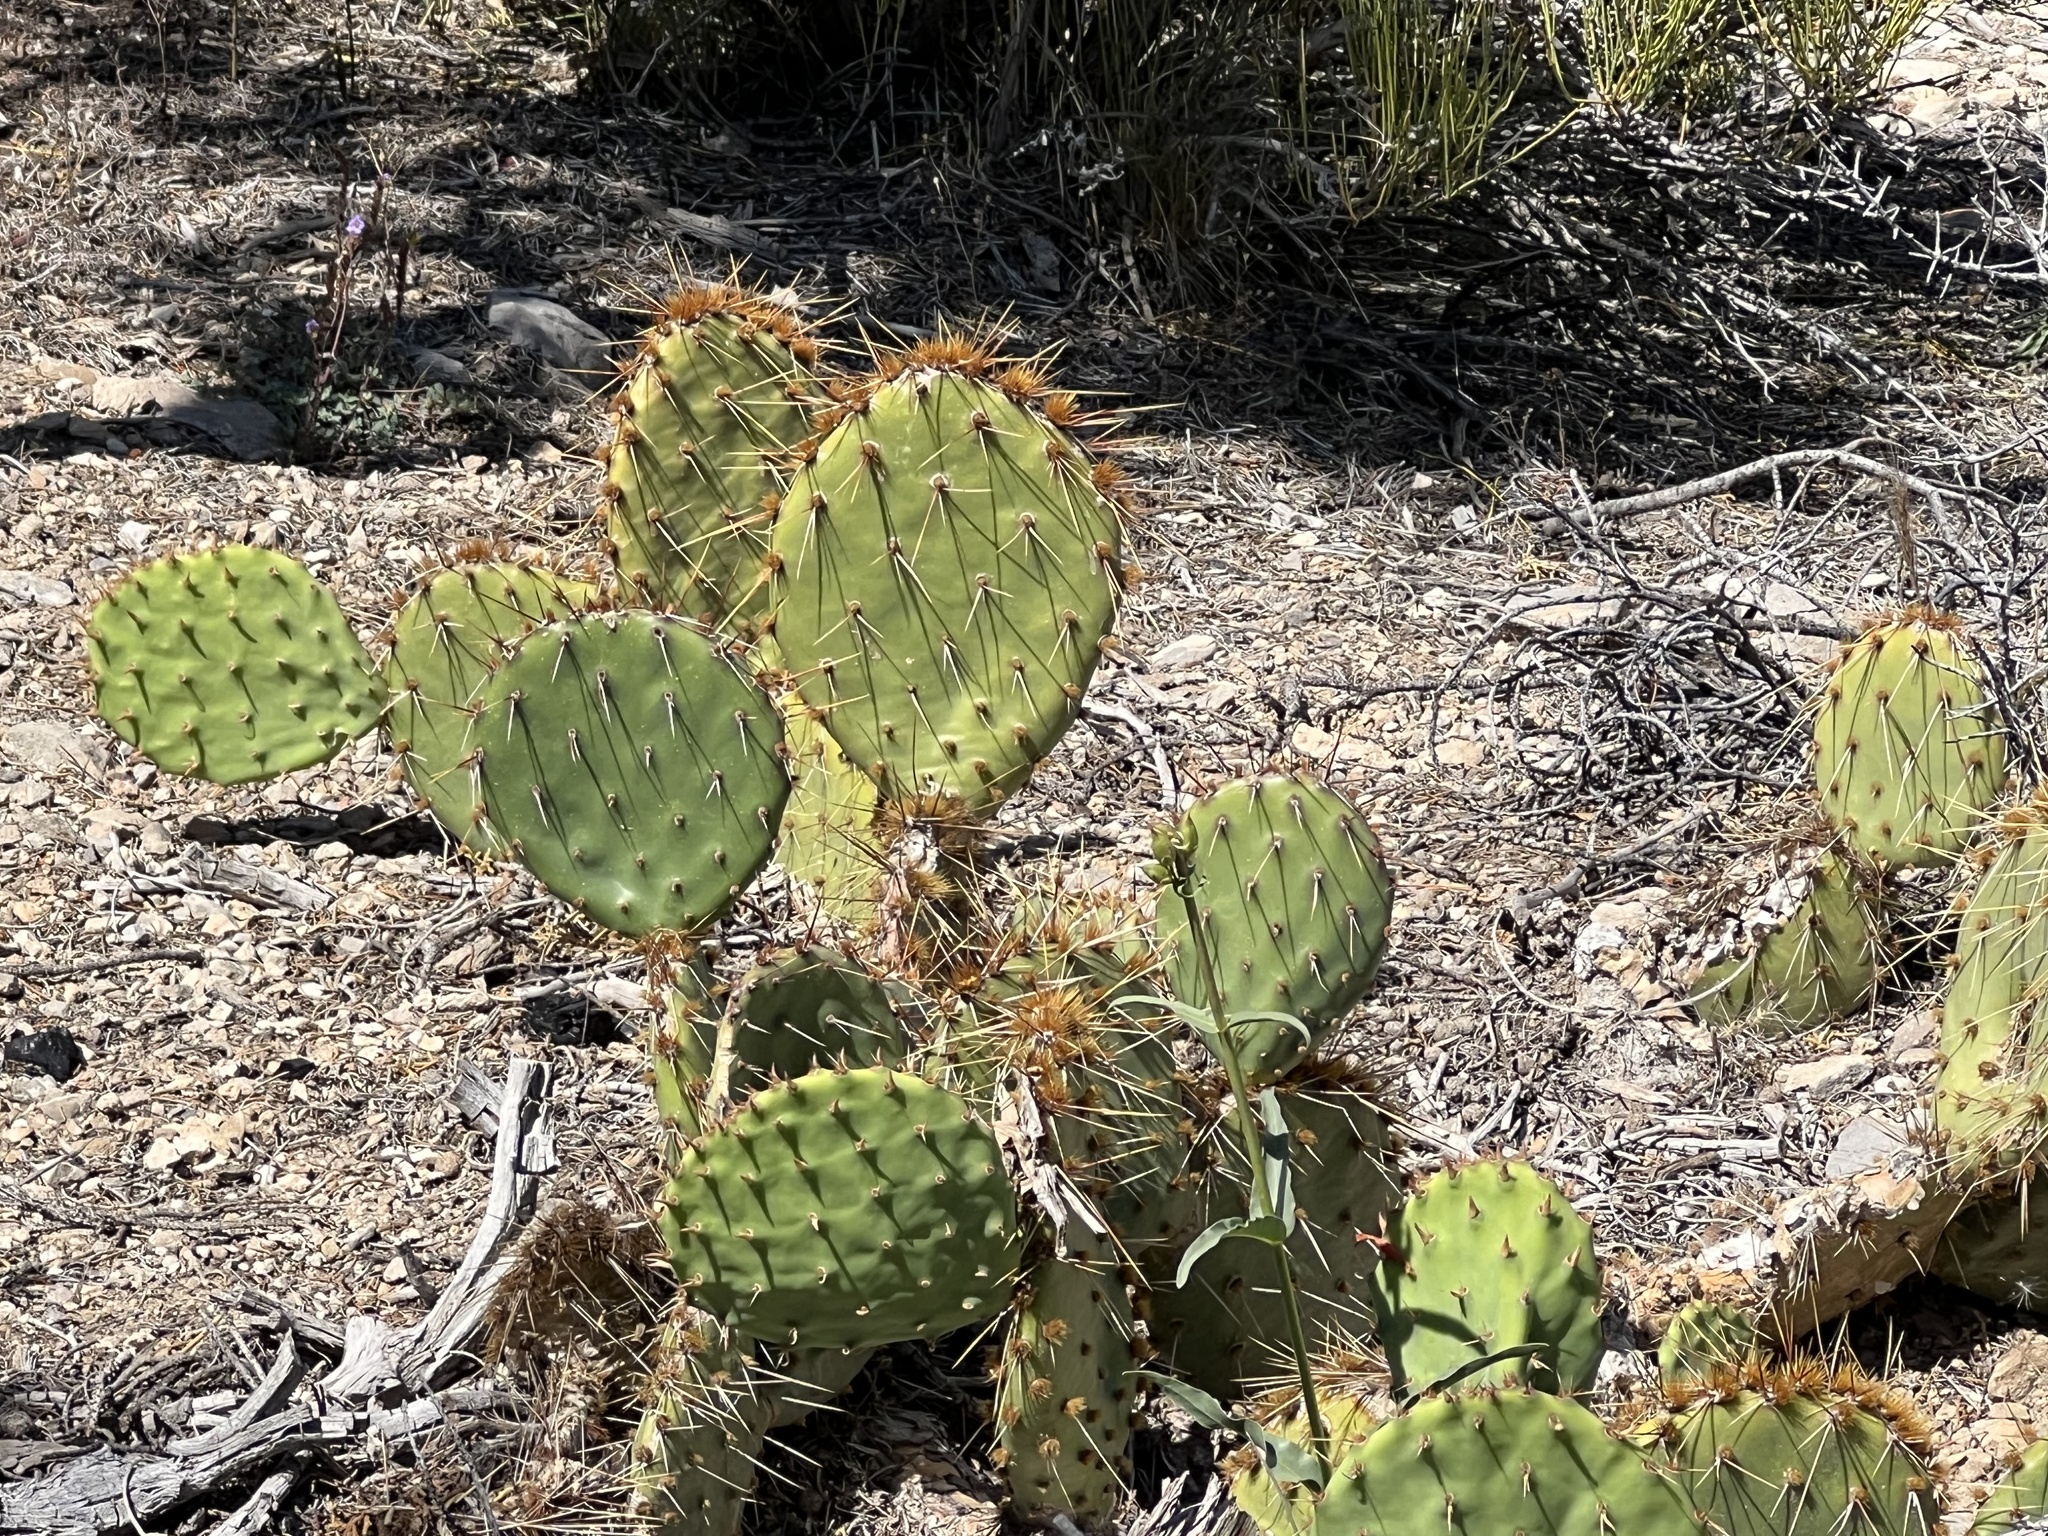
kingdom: Plantae
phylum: Tracheophyta
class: Magnoliopsida
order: Caryophyllales
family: Cactaceae
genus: Opuntia
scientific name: Opuntia phaeacantha
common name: New mexico prickly-pear
